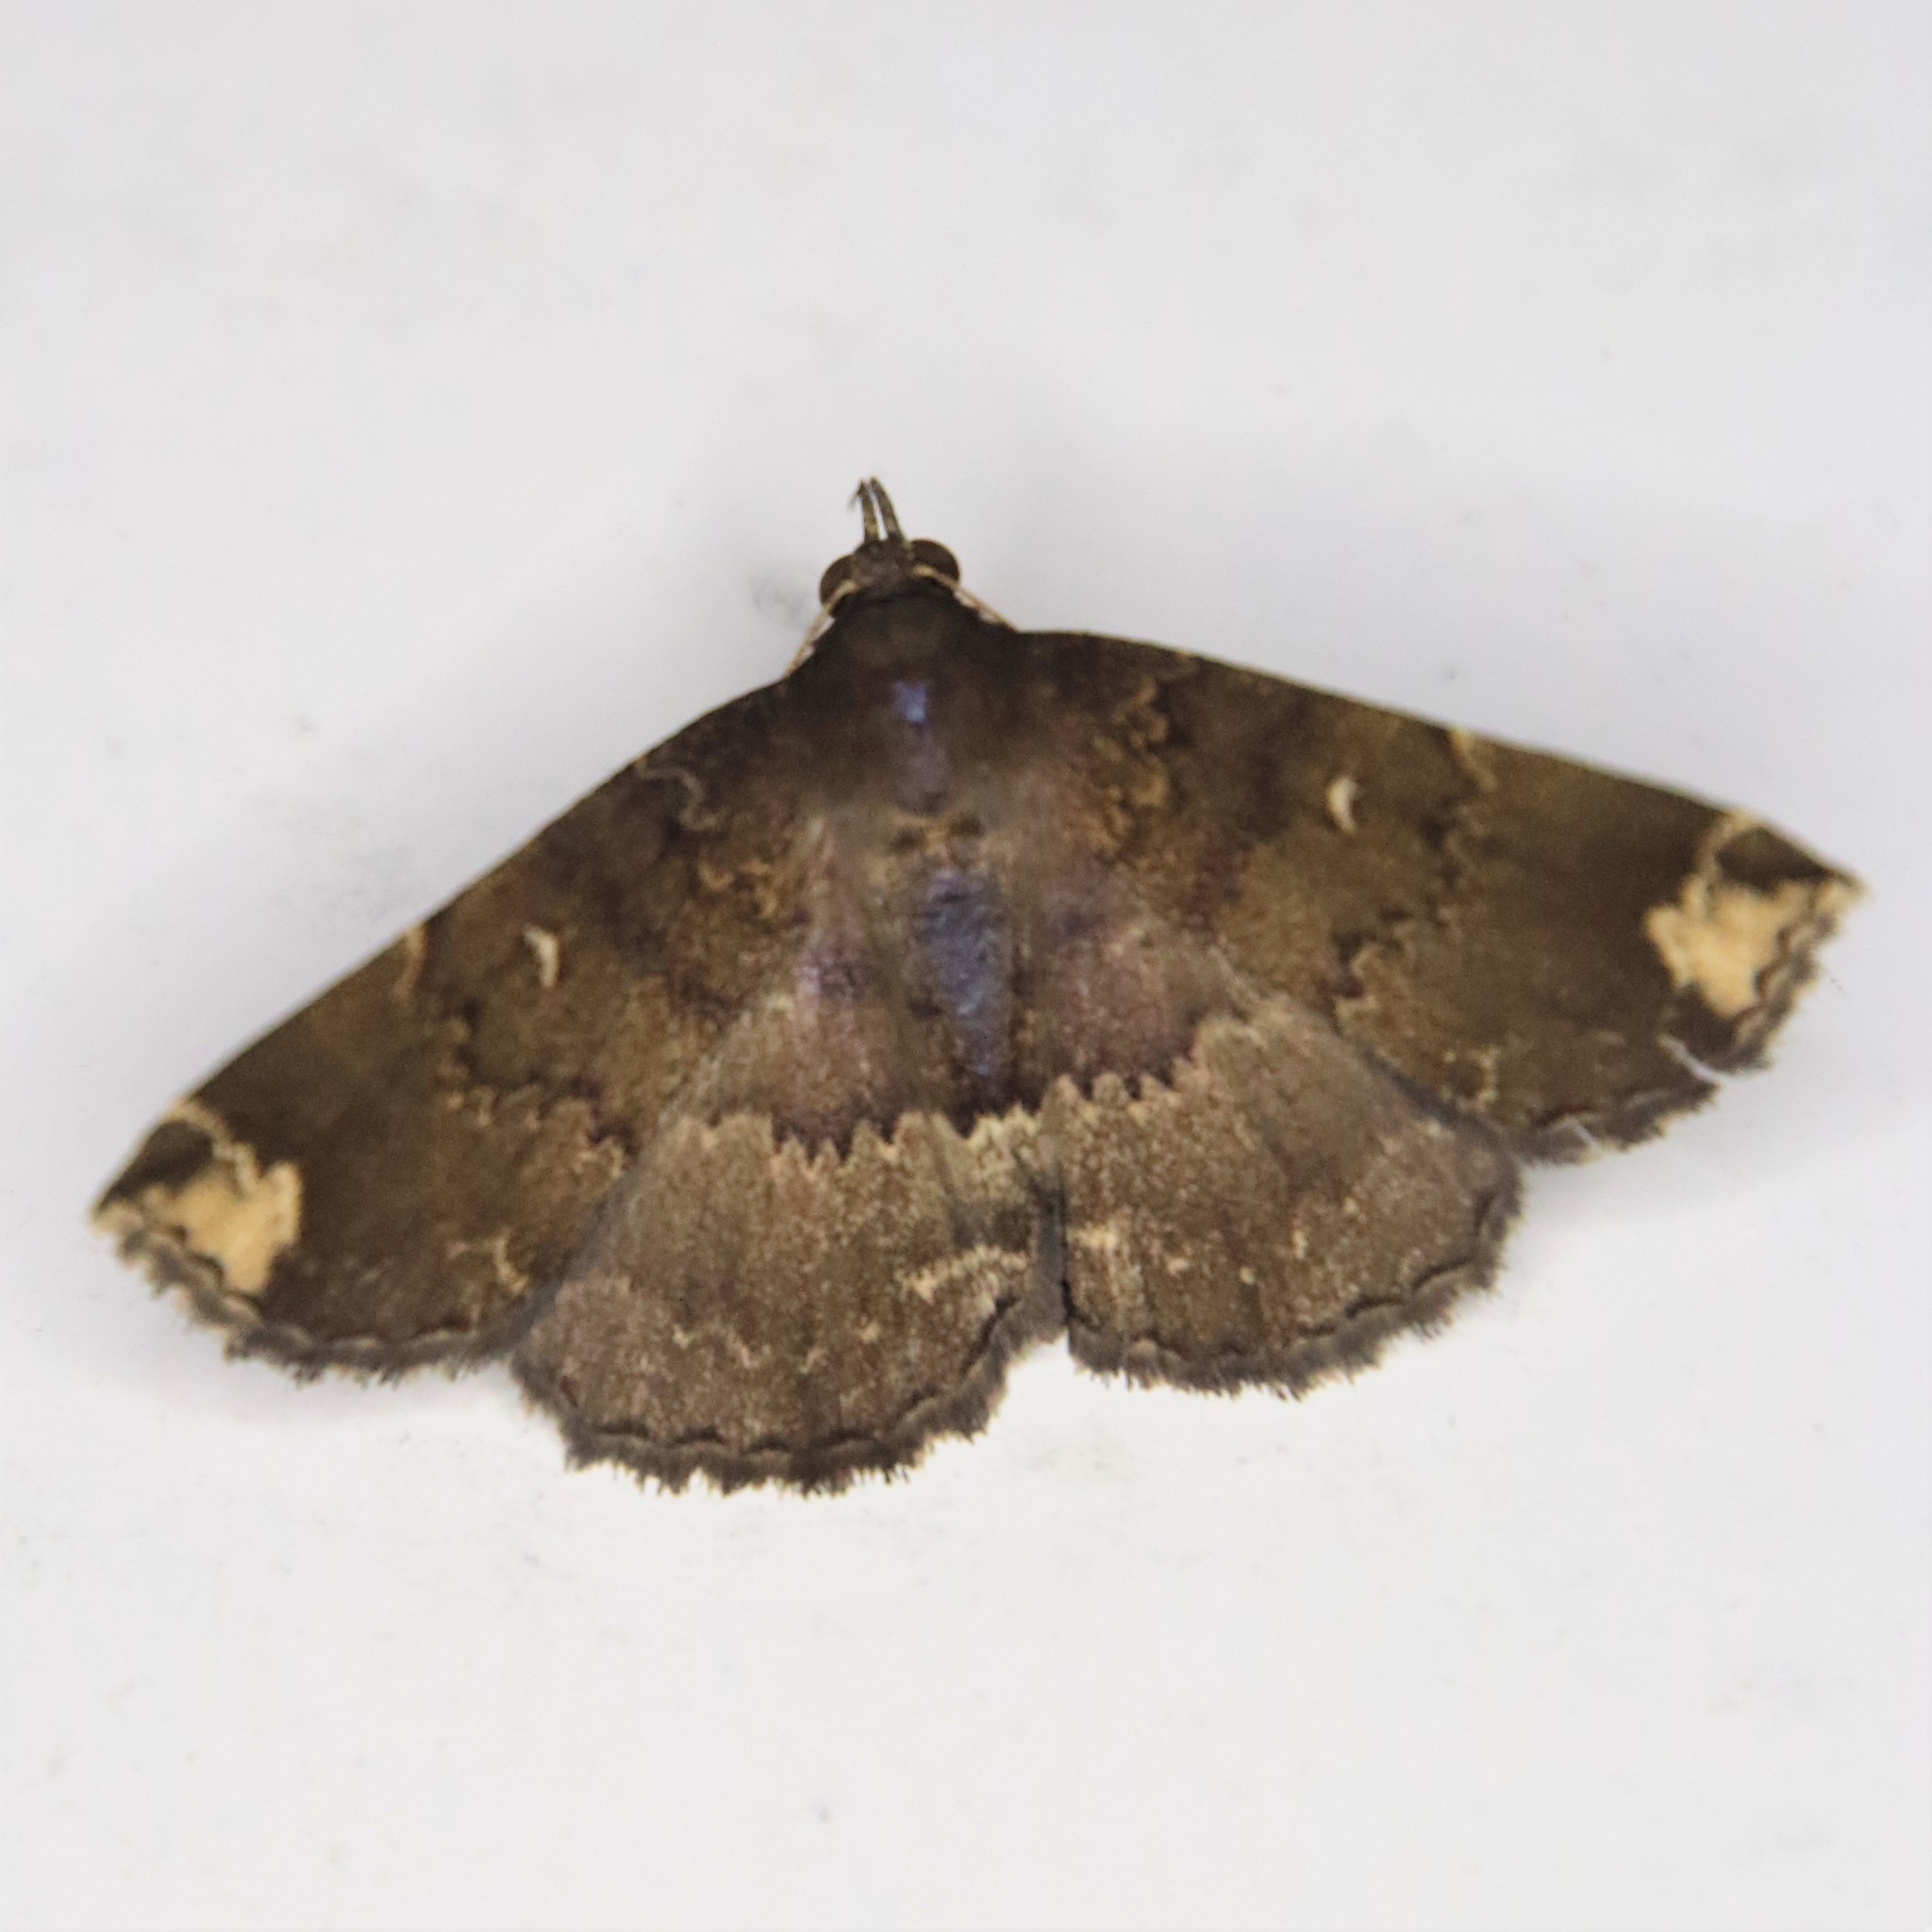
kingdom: Animalia
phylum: Arthropoda
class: Insecta
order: Lepidoptera
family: Erebidae
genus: Adrapsa
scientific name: Adrapsa quadrilinealis
